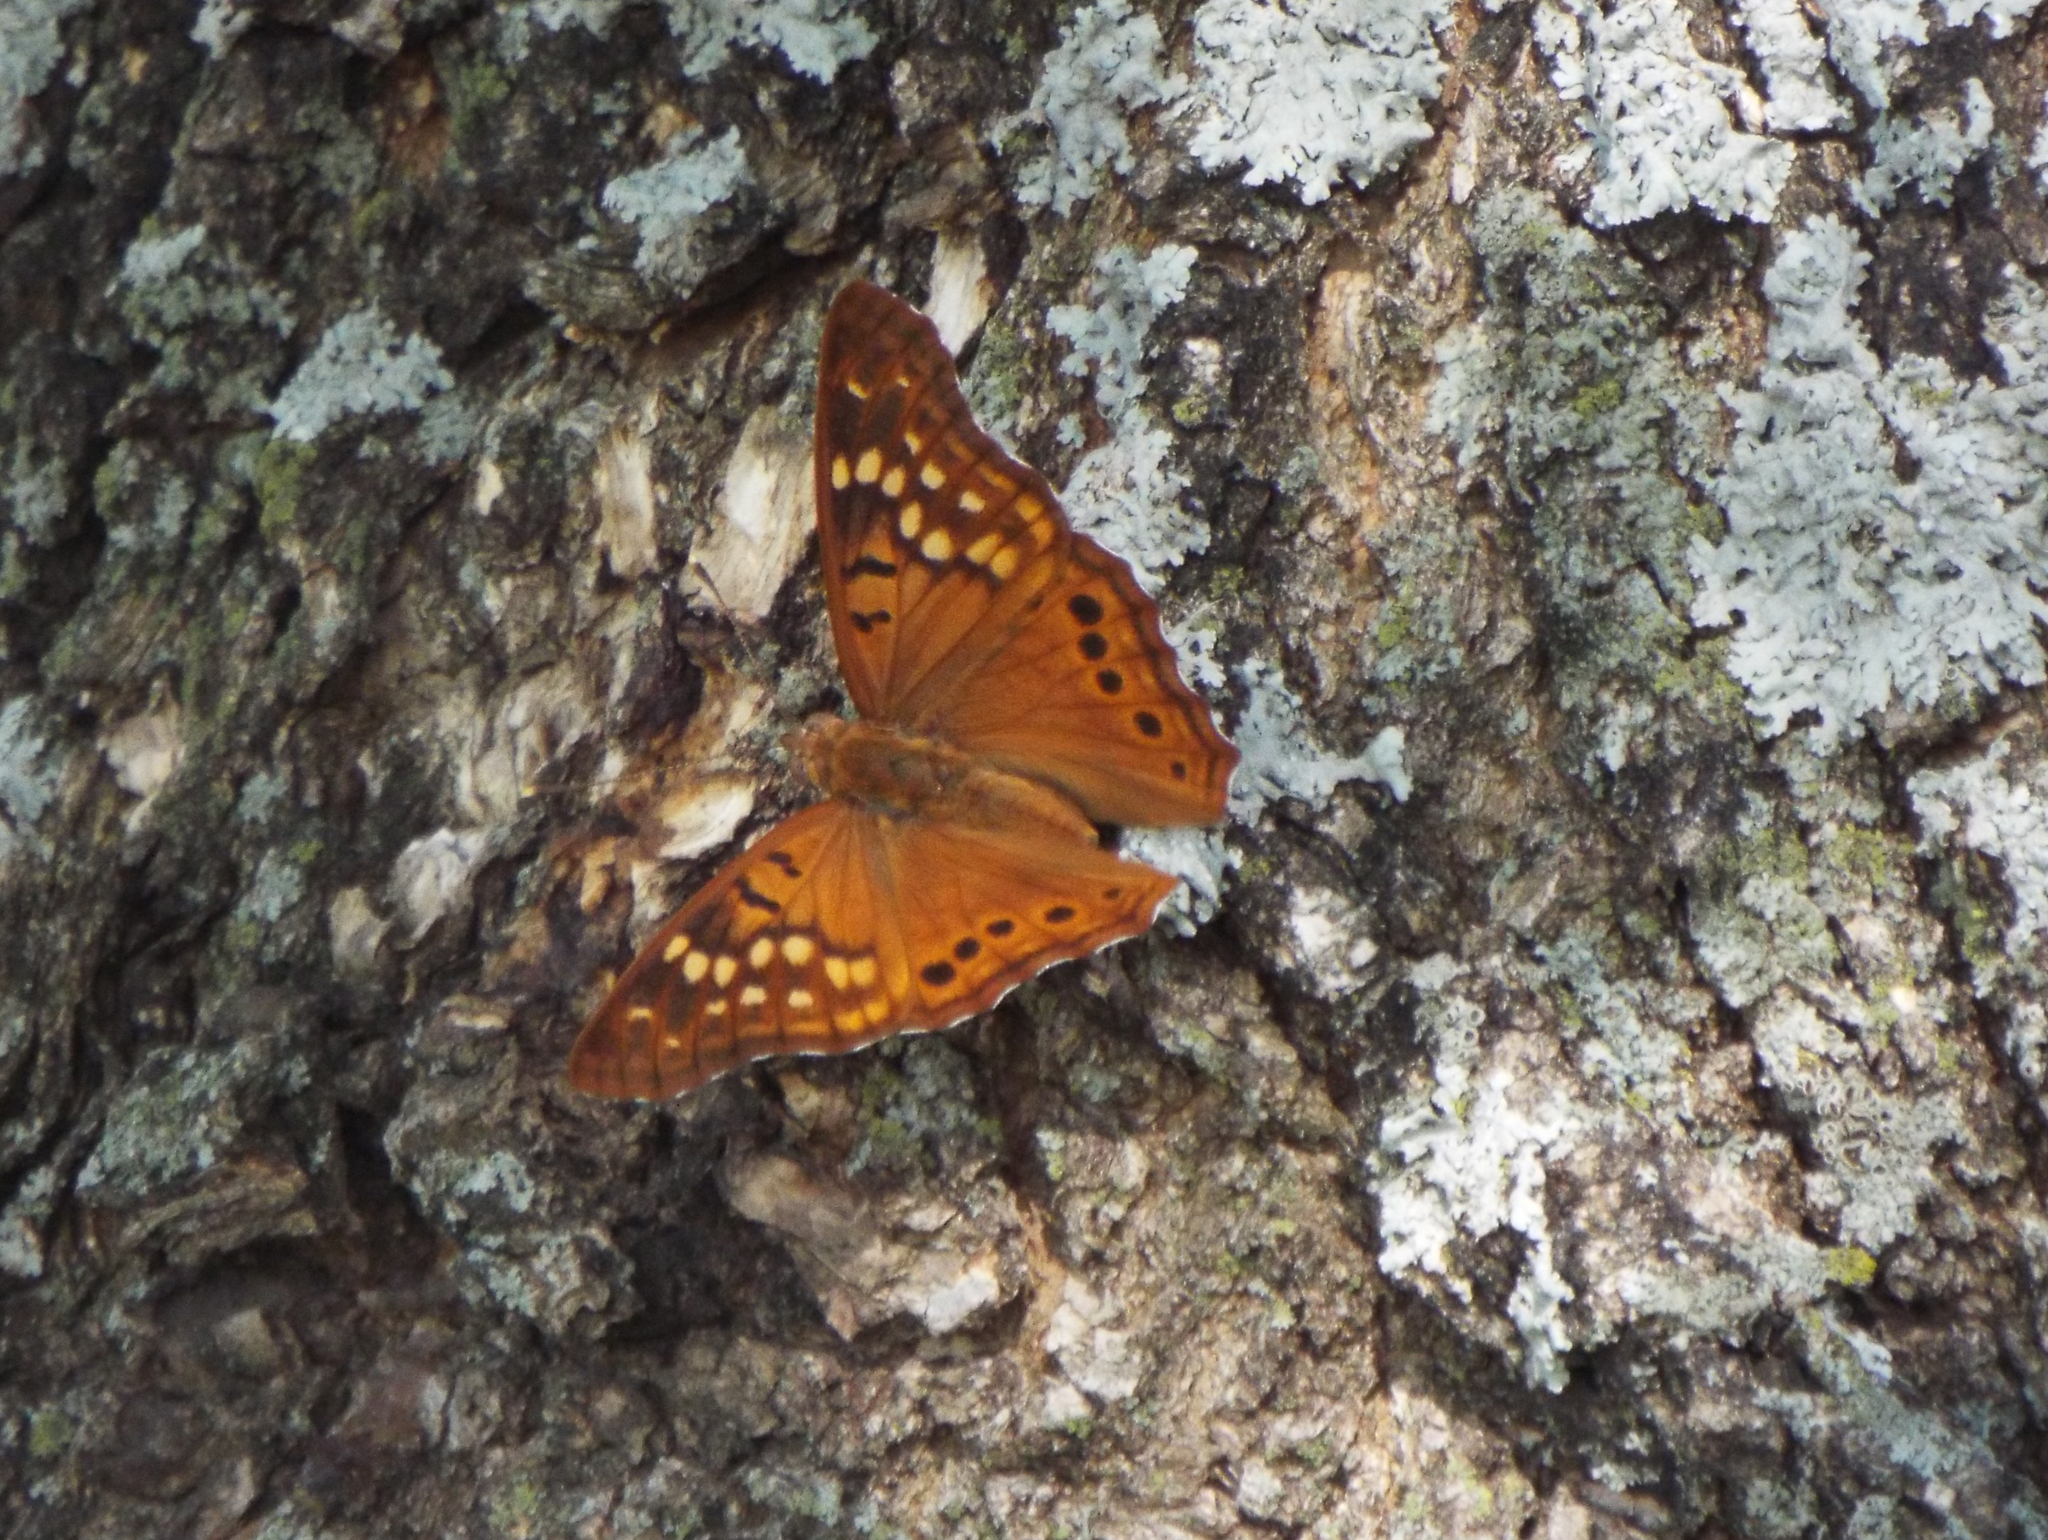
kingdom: Animalia
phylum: Arthropoda
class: Insecta
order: Lepidoptera
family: Nymphalidae
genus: Asterocampa
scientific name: Asterocampa clyton
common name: Tawny emperor
